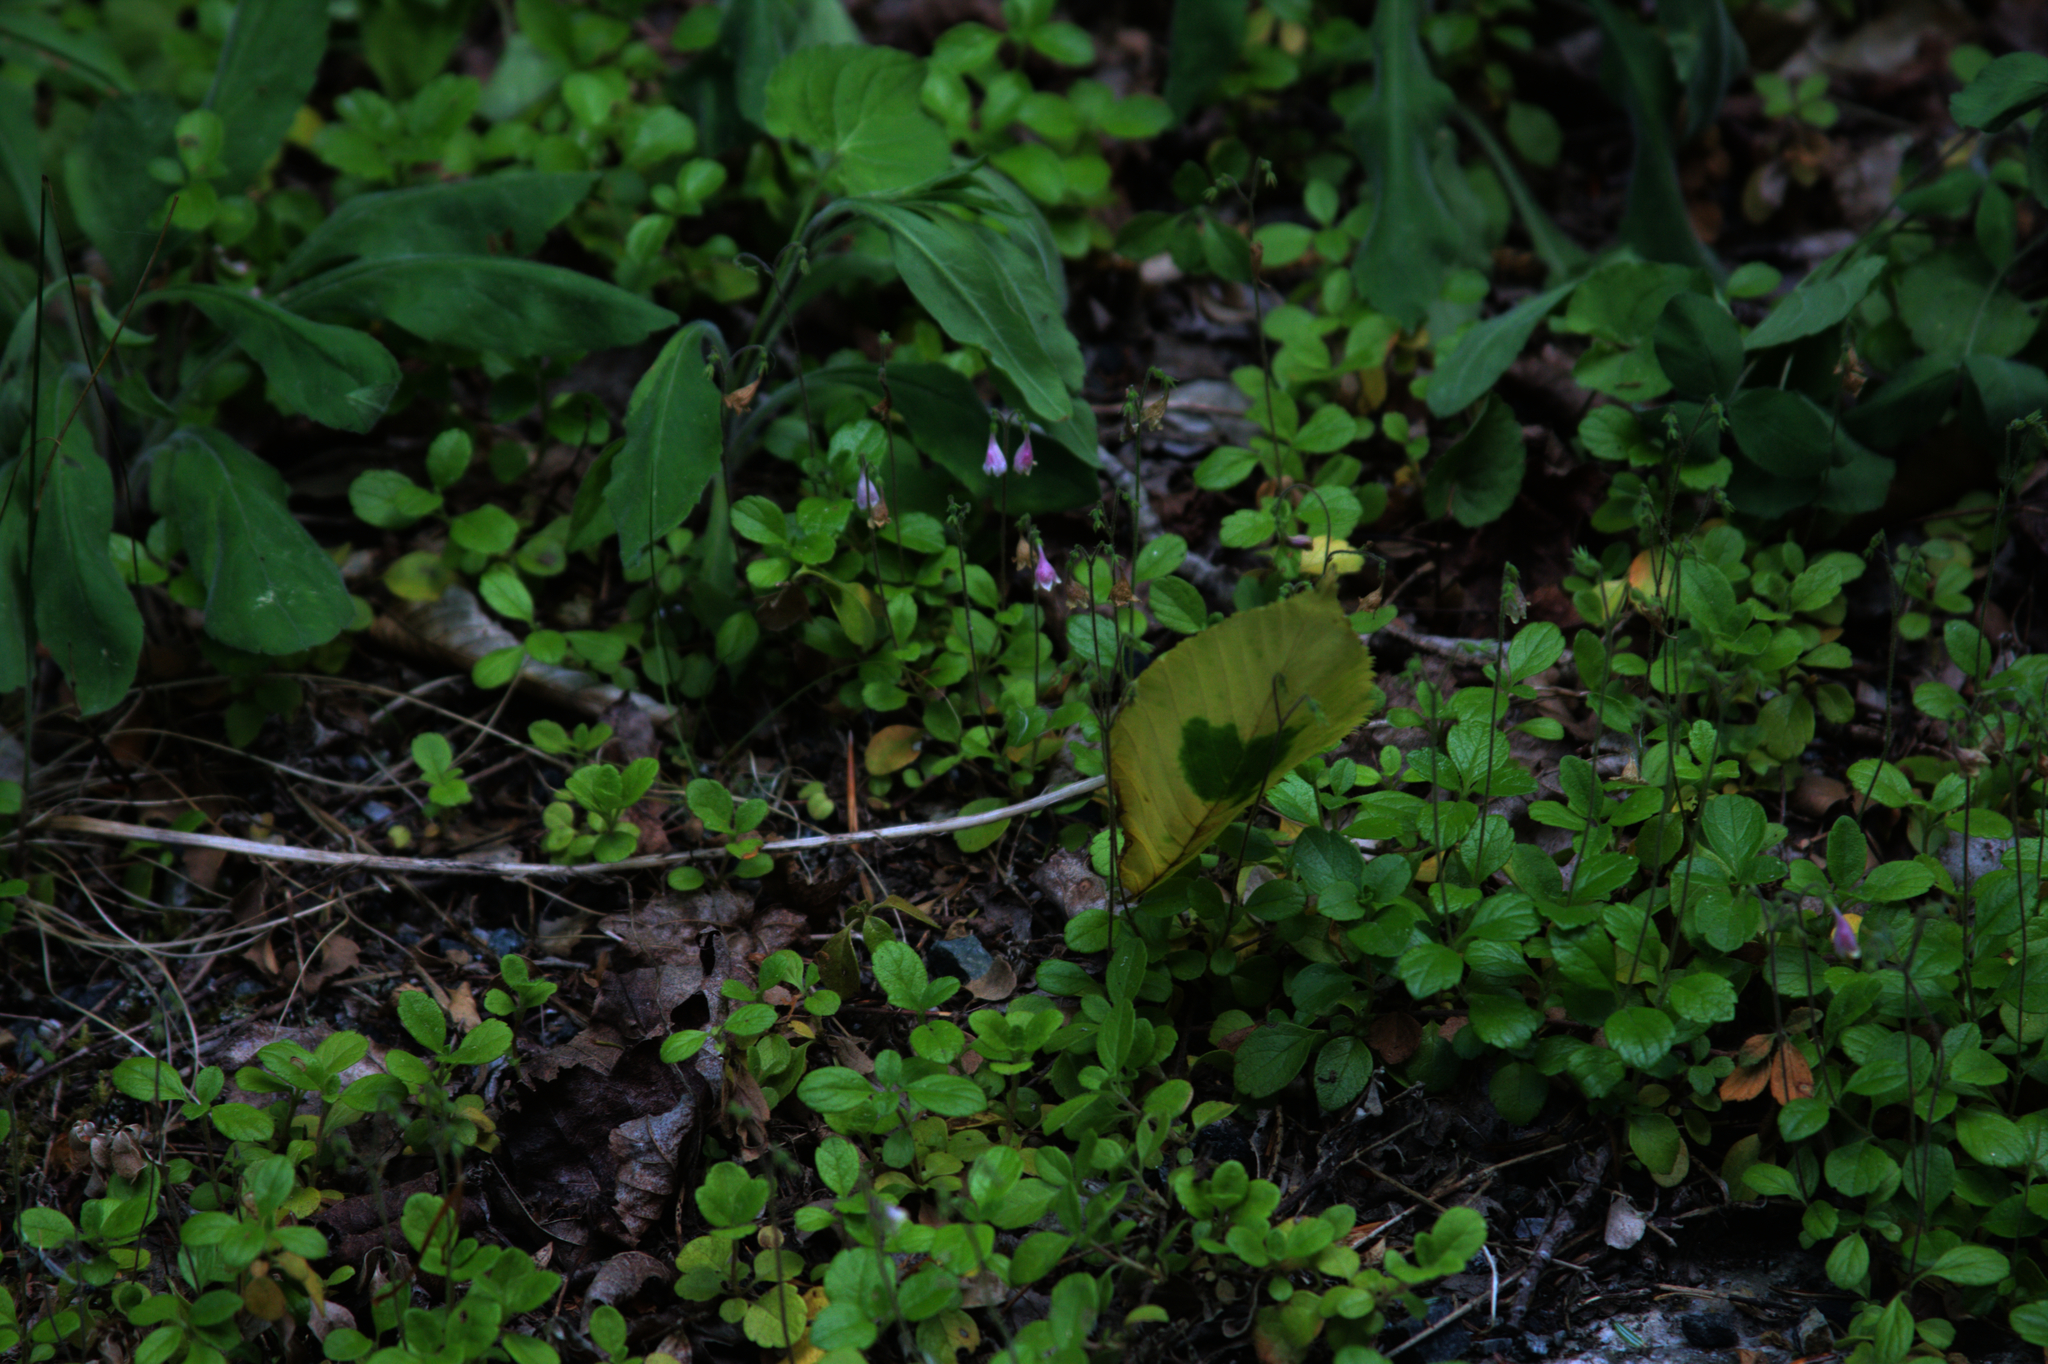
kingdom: Plantae
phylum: Tracheophyta
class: Magnoliopsida
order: Dipsacales
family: Caprifoliaceae
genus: Linnaea
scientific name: Linnaea borealis
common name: Twinflower
